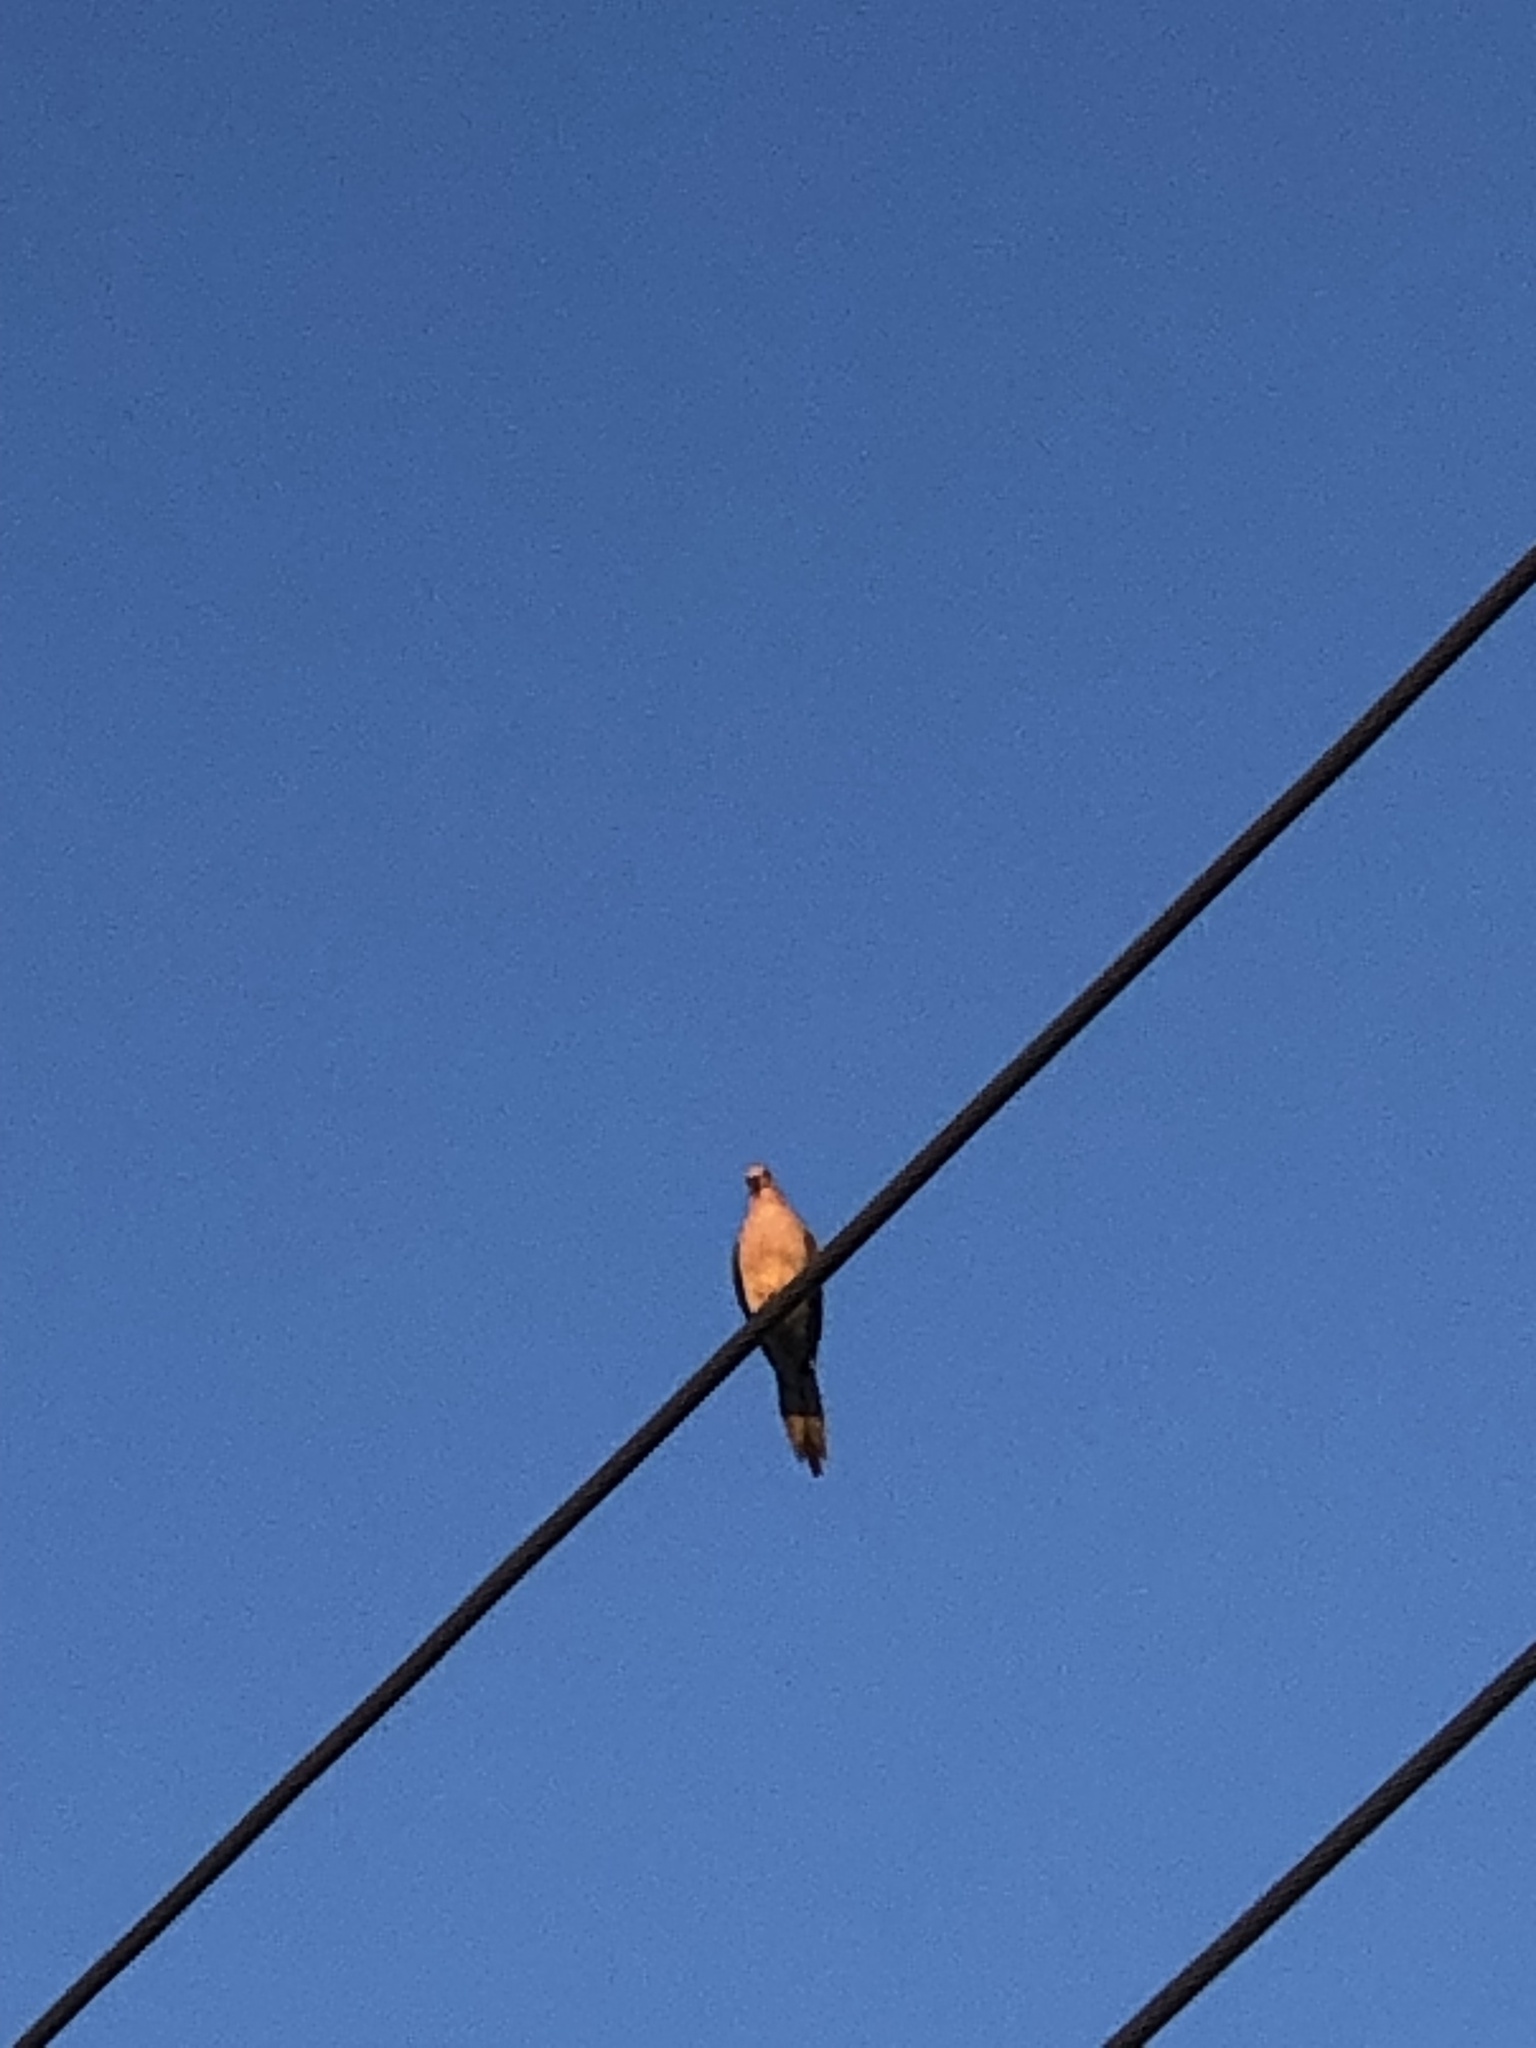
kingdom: Animalia
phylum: Chordata
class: Aves
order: Columbiformes
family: Columbidae
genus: Zenaida
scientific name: Zenaida macroura
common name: Mourning dove
